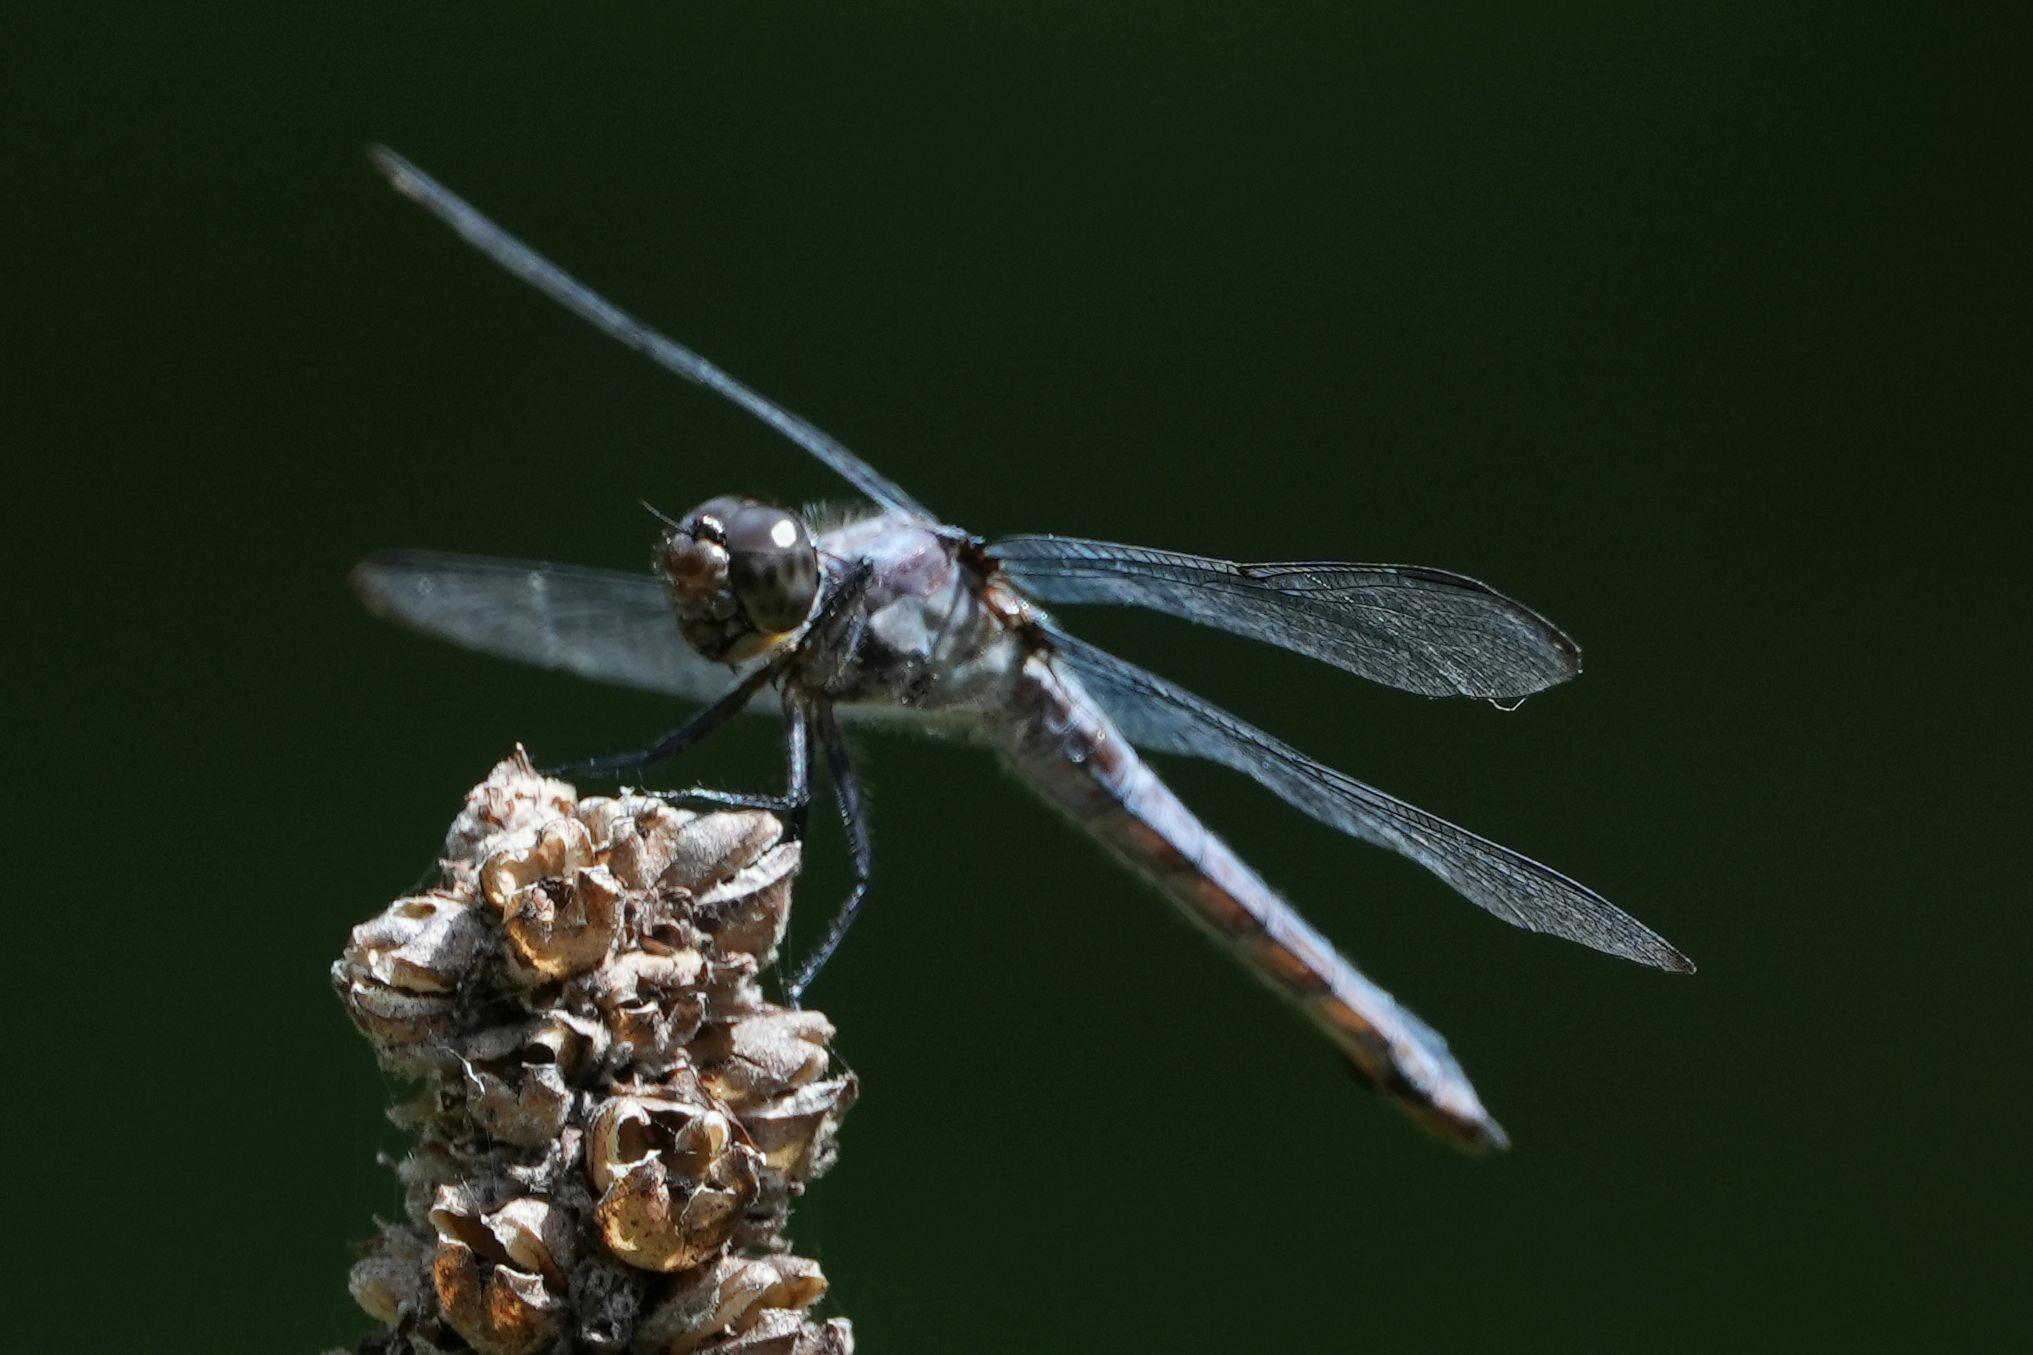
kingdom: Animalia
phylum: Arthropoda
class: Insecta
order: Odonata
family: Libellulidae
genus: Libellula
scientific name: Libellula incesta
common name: Slaty skimmer
